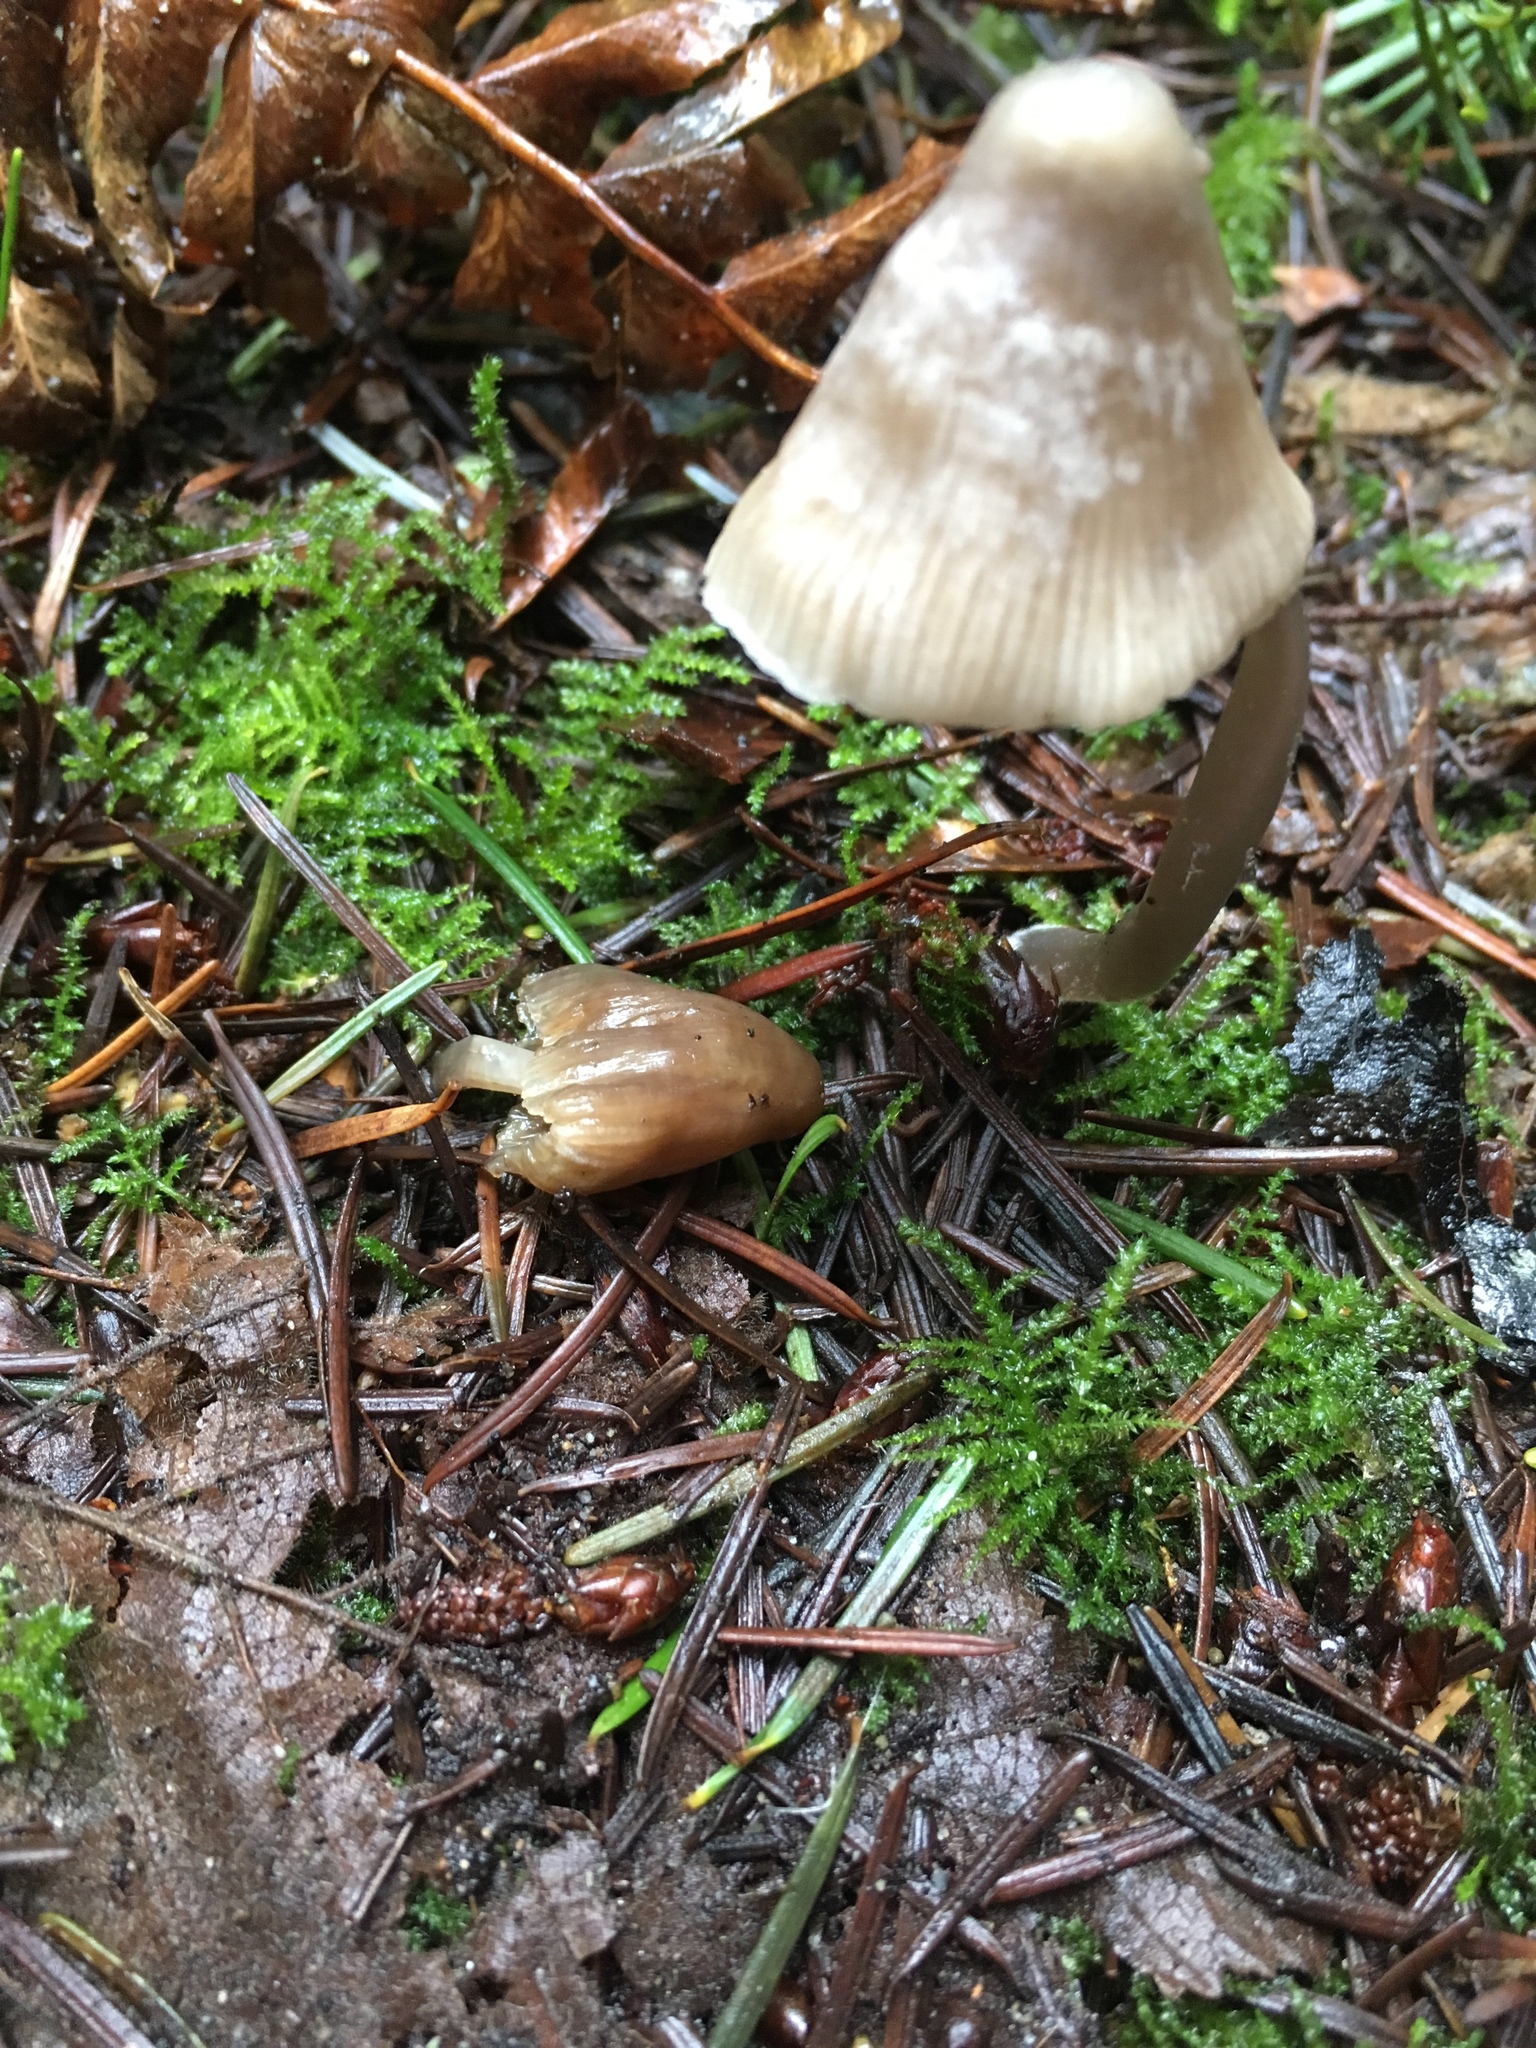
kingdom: Fungi
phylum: Basidiomycota
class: Agaricomycetes
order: Agaricales
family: Mycenaceae
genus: Mycena
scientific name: Mycena robusta
